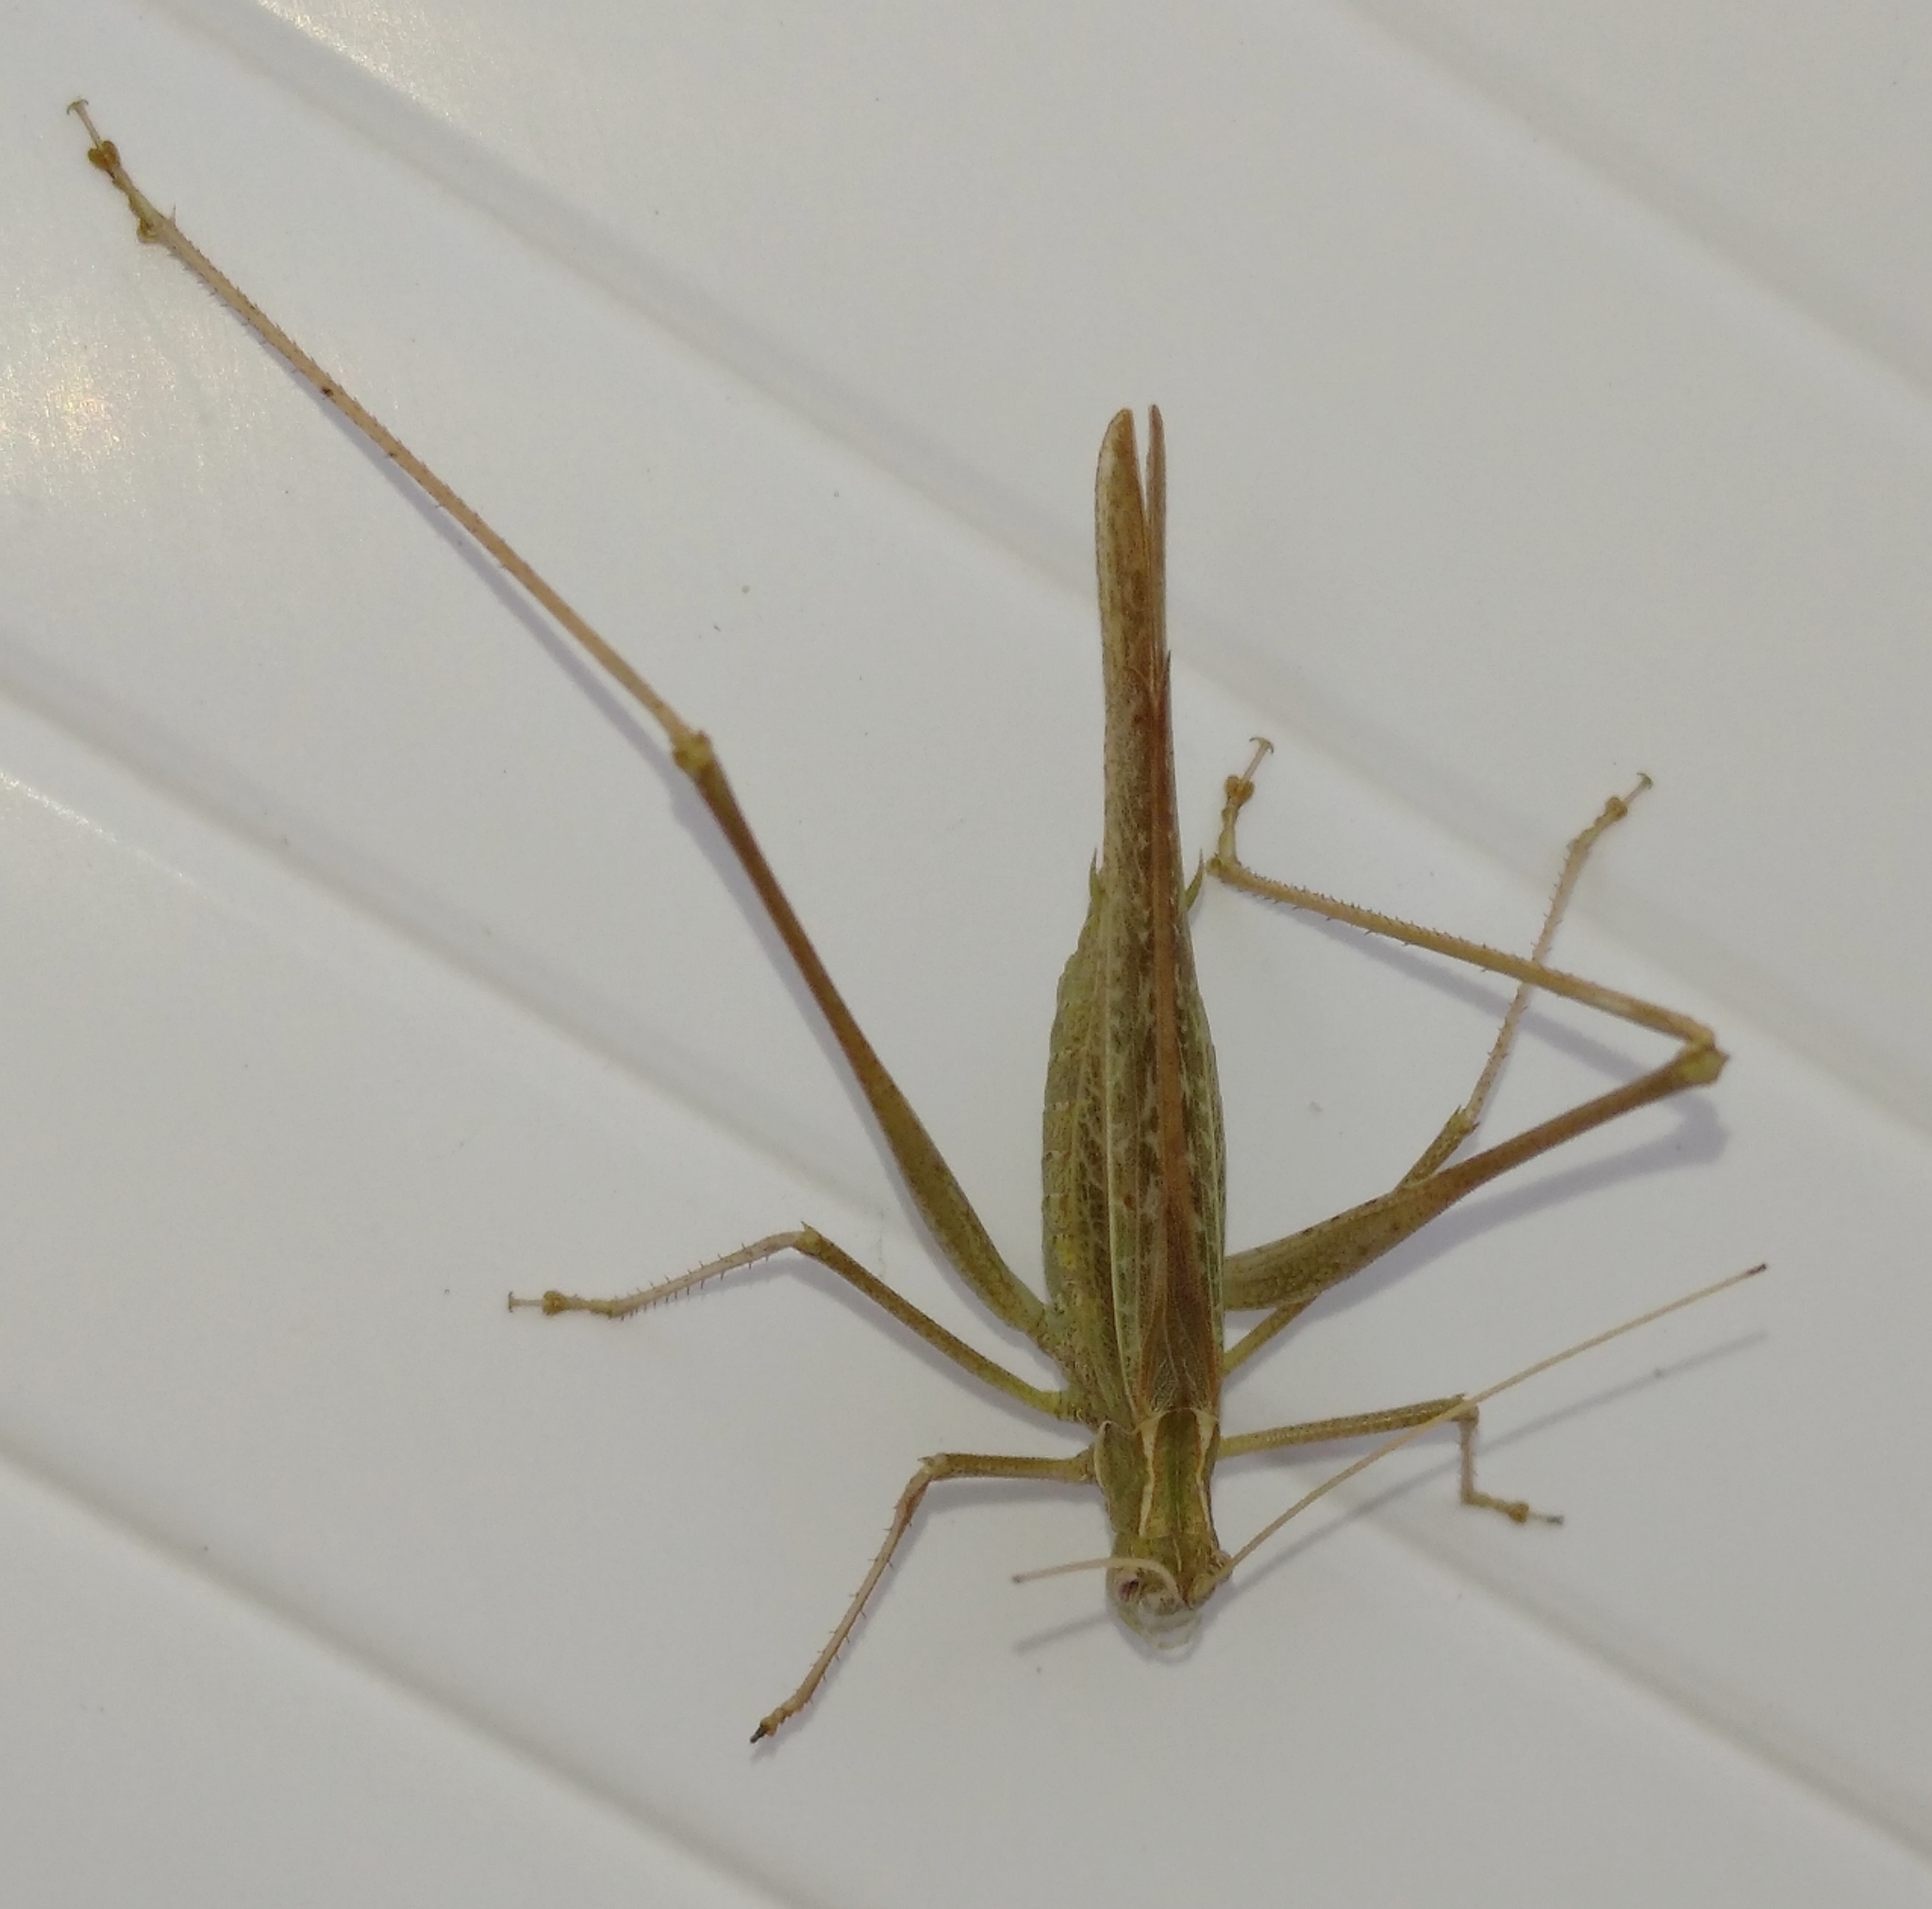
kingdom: Animalia
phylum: Arthropoda
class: Insecta
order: Orthoptera
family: Tettigoniidae
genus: Tylopsis
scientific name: Tylopsis lilifolia
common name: Lily bush-cricket
